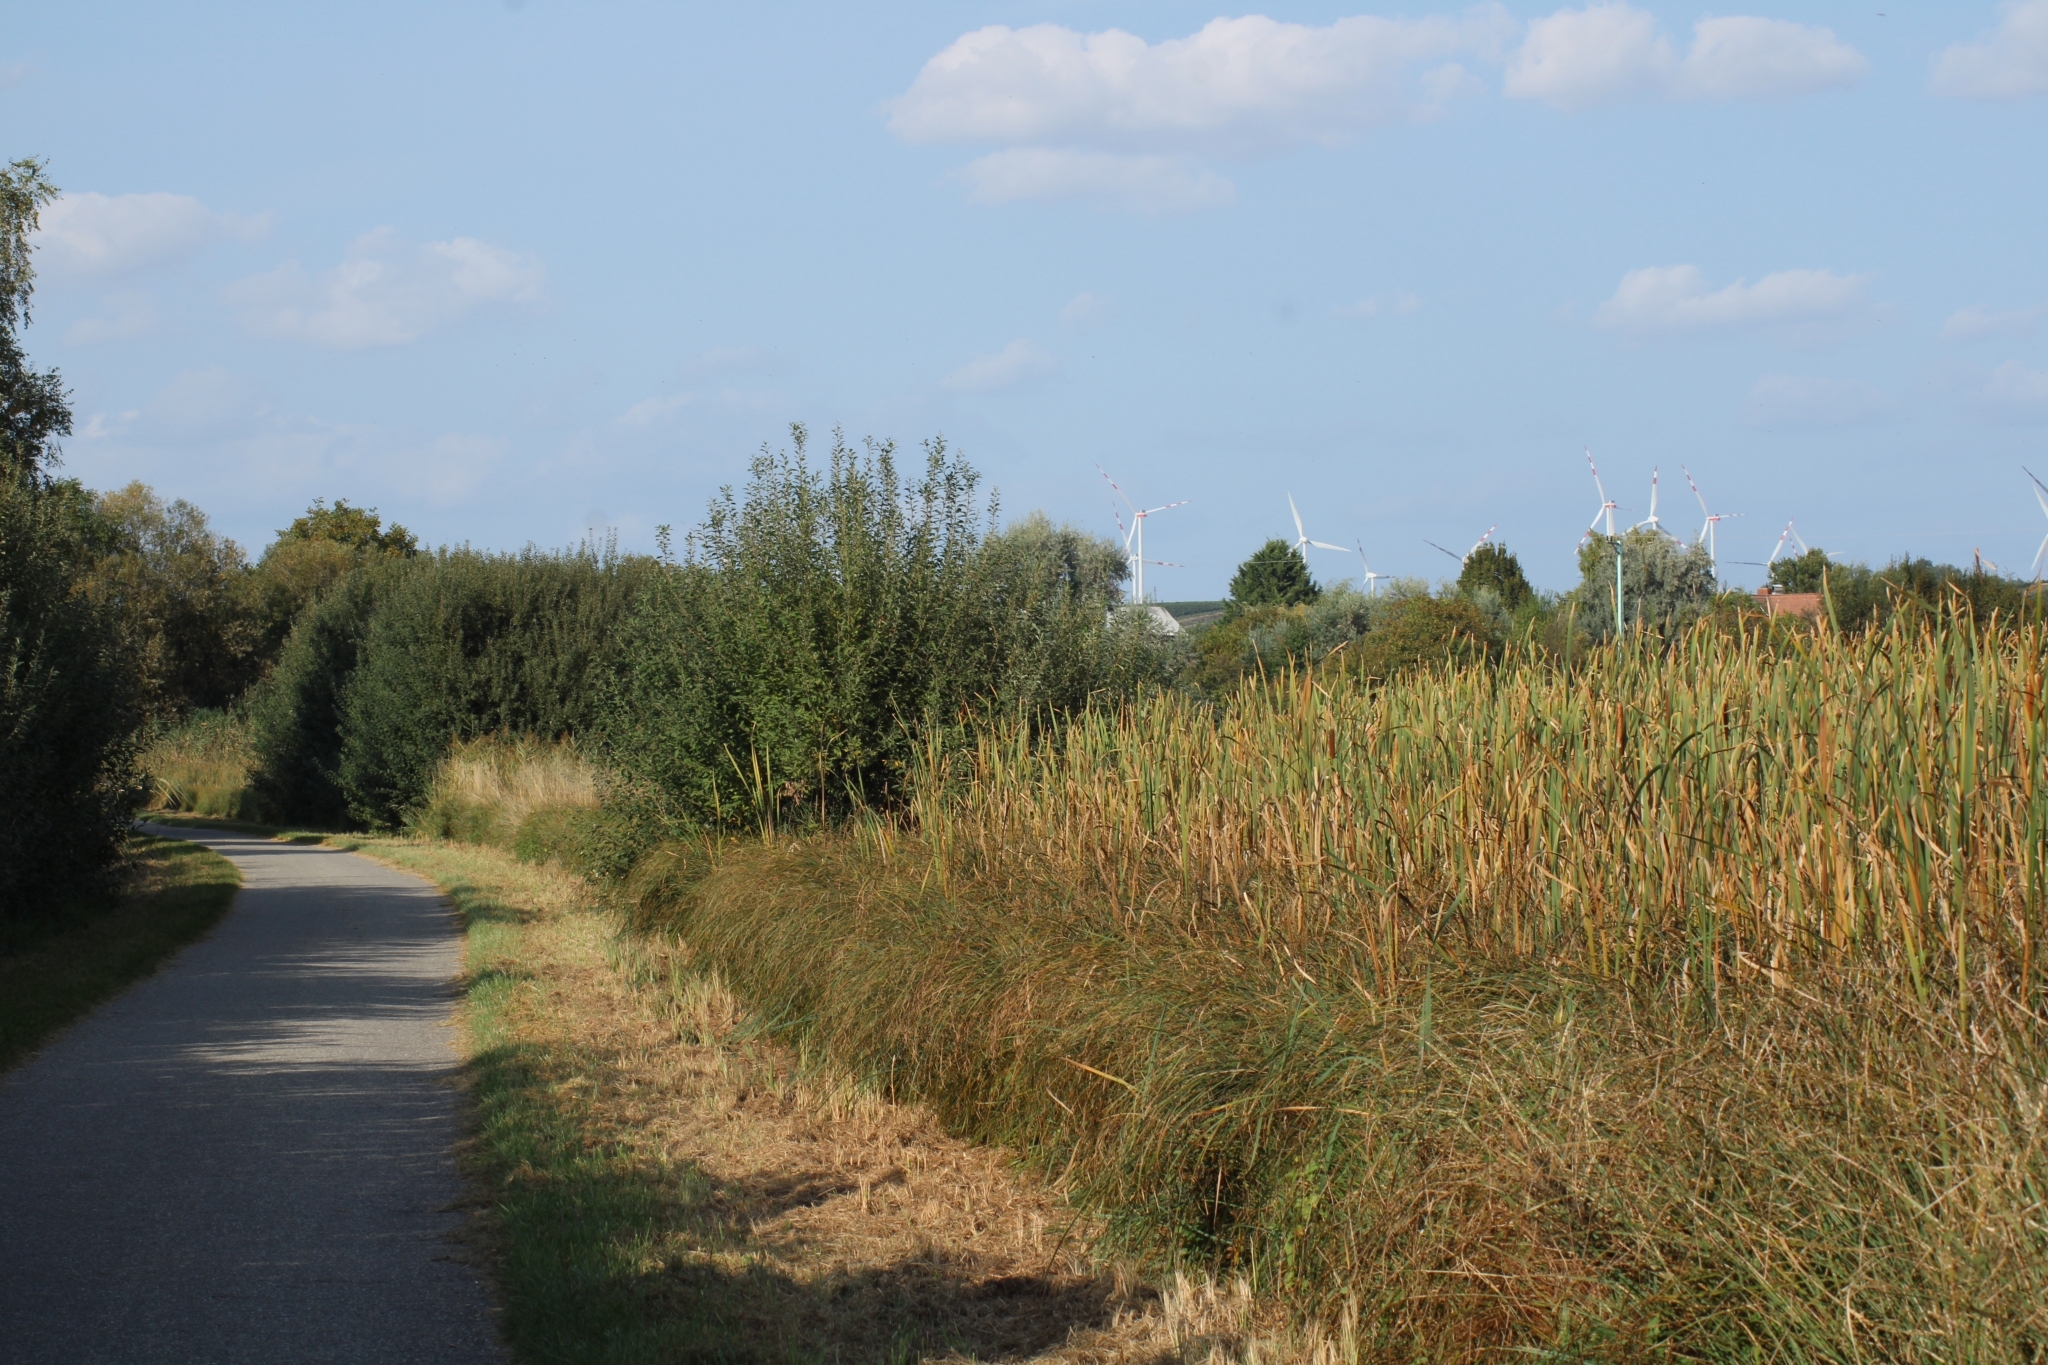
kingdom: Animalia
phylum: Chordata
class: Amphibia
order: Anura
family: Hylidae
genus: Hyla
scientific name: Hyla arborea
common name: Common tree frog
